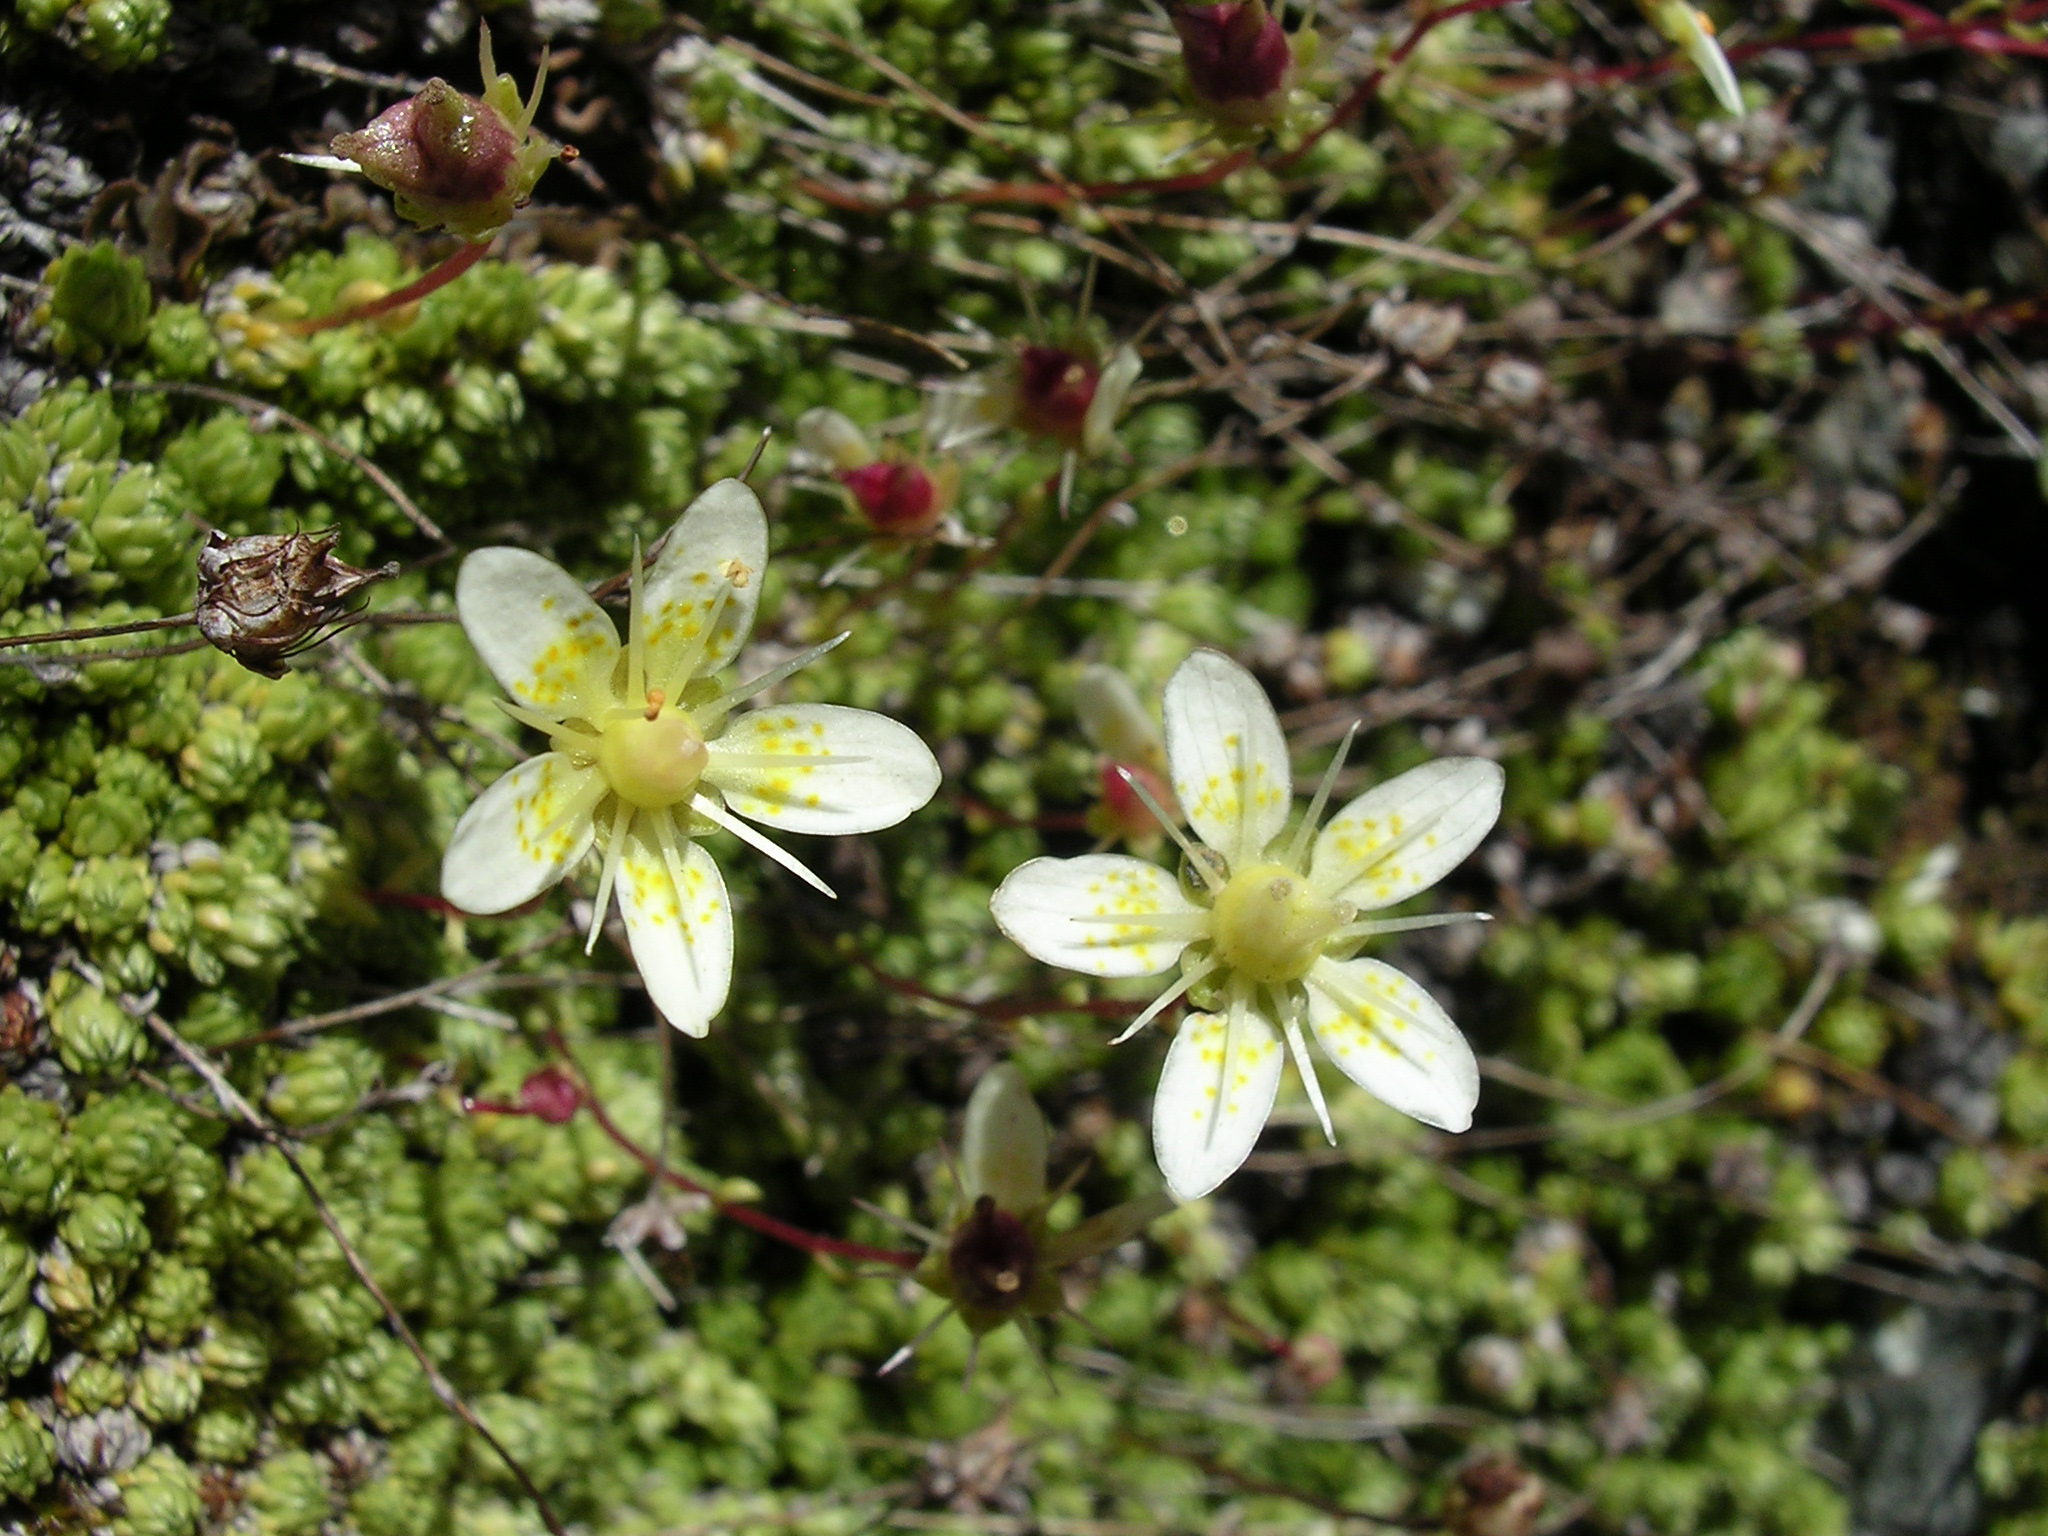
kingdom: Plantae
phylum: Tracheophyta
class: Magnoliopsida
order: Saxifragales
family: Saxifragaceae
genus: Saxifraga
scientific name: Saxifraga bryoides
